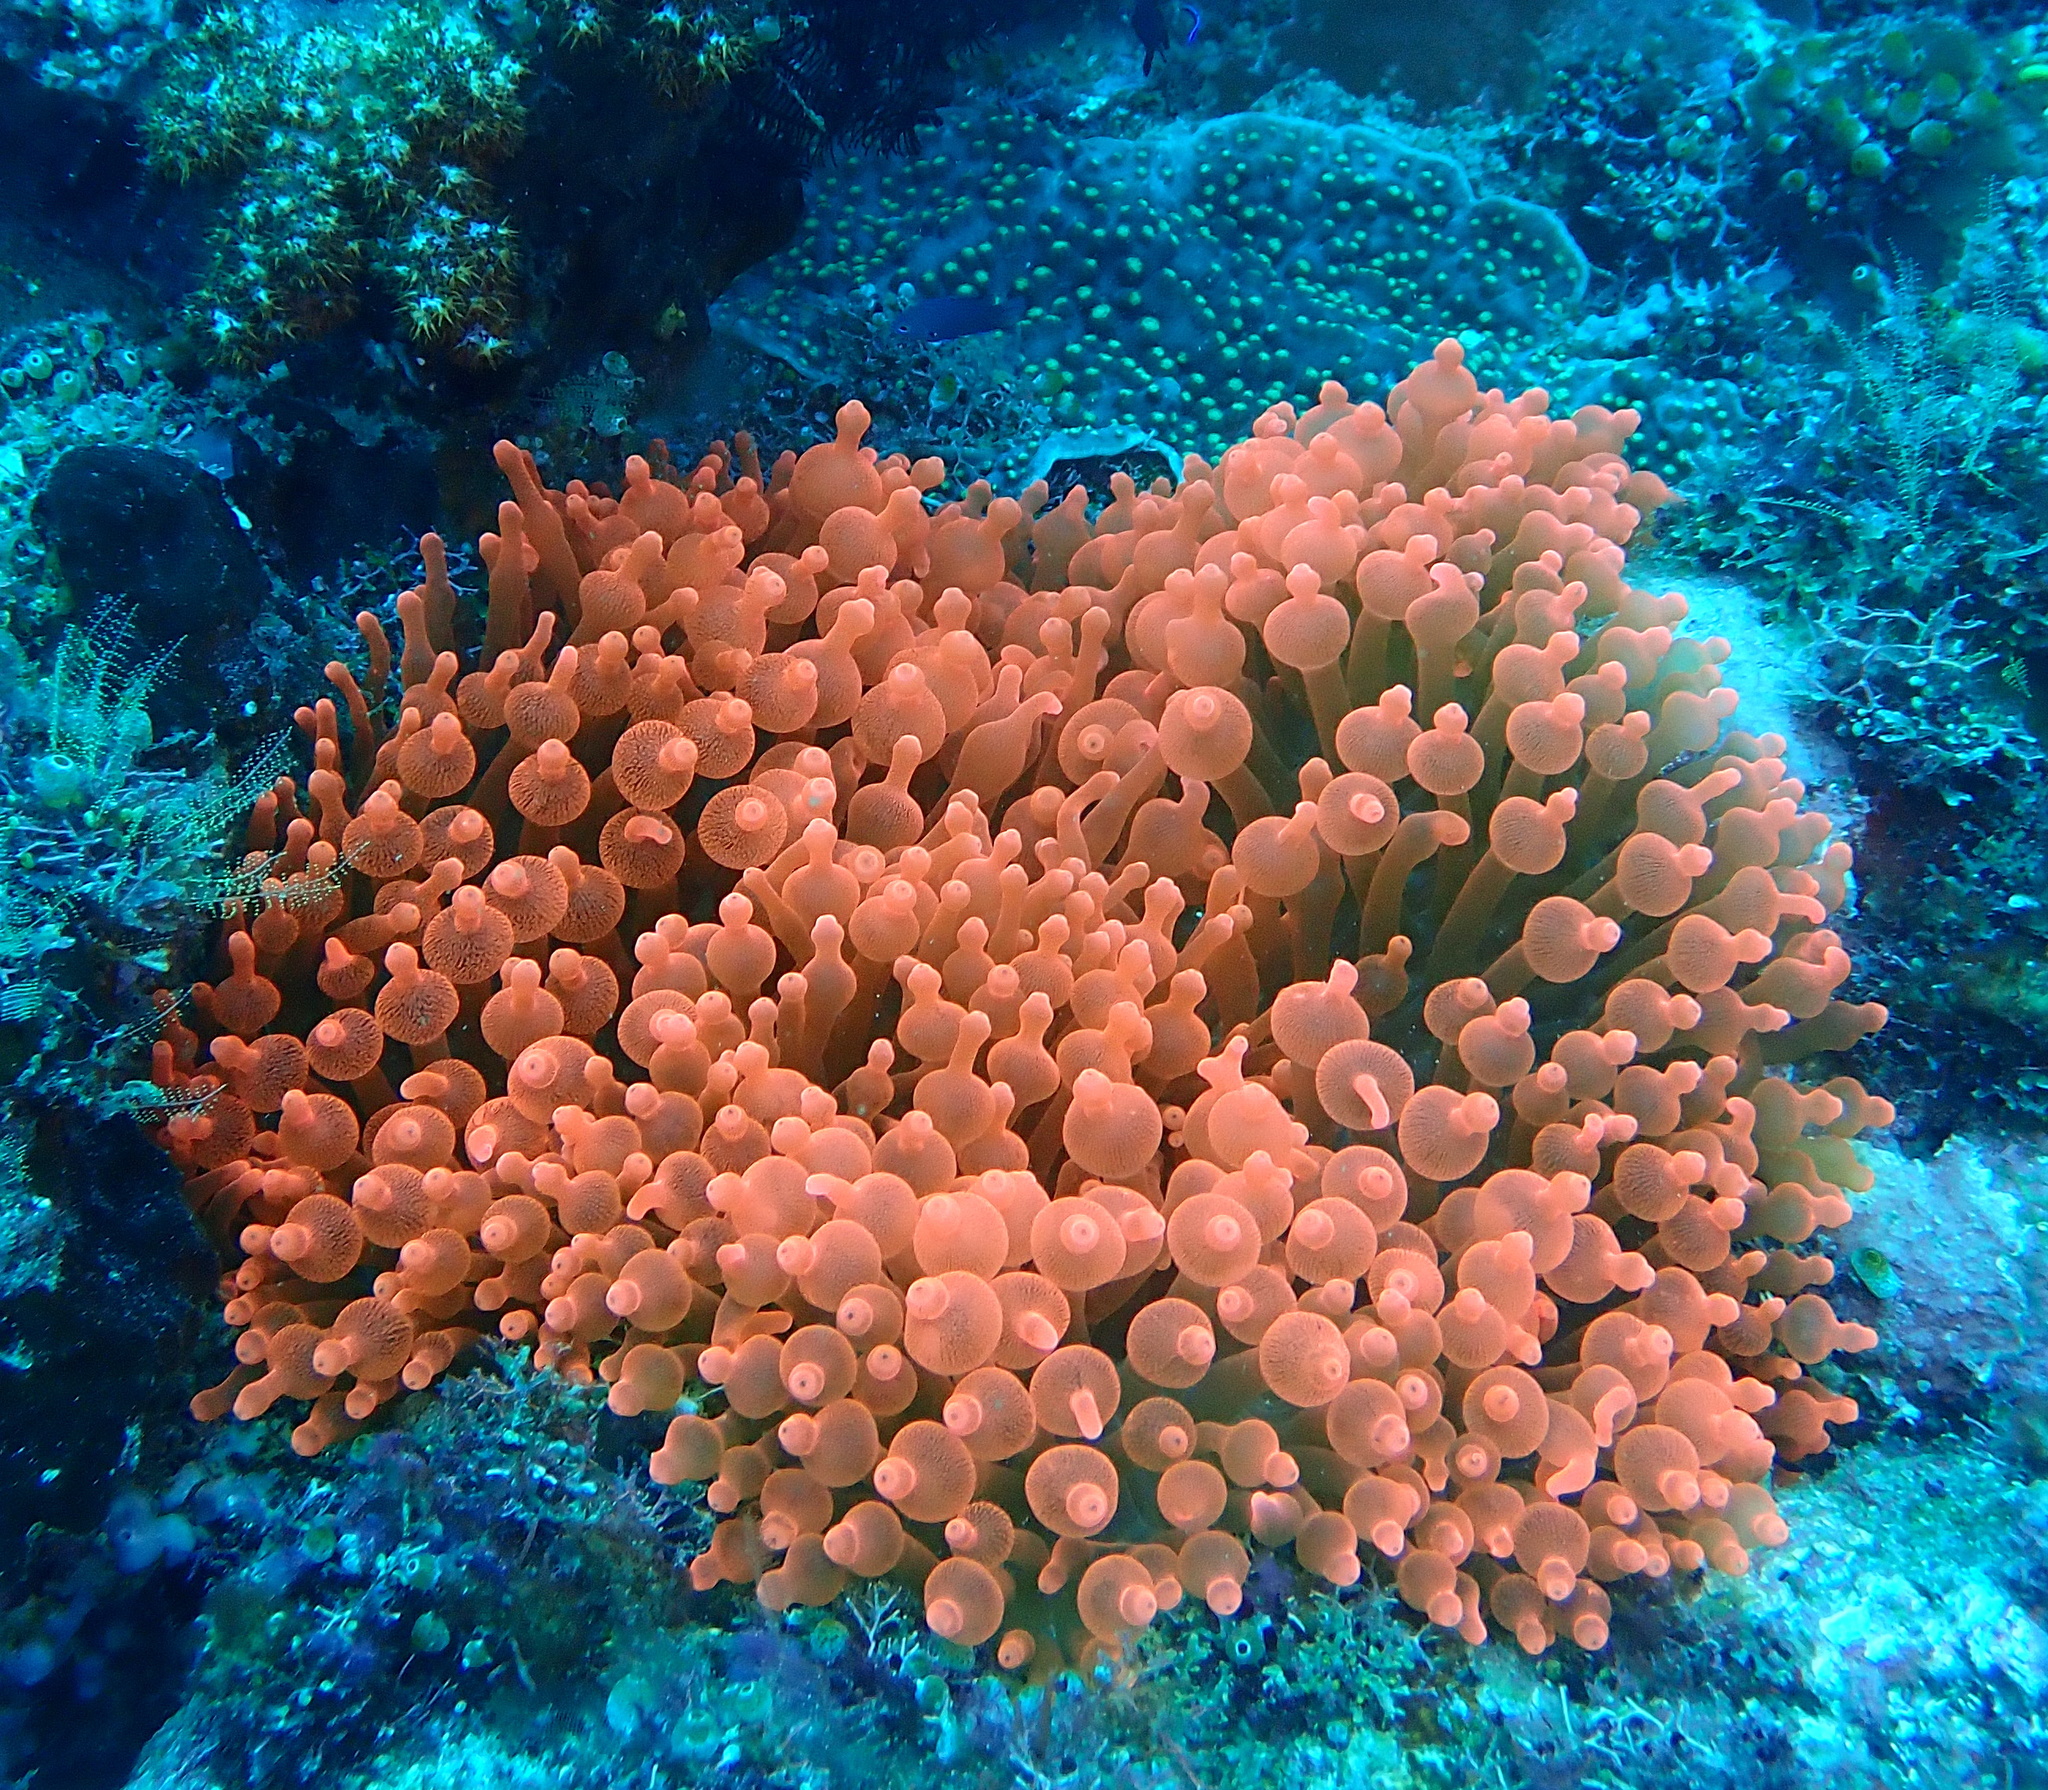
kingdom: Animalia
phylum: Cnidaria
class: Anthozoa
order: Actiniaria
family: Actiniidae
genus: Entacmaea
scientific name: Entacmaea quadricolor
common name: Bulb tentacle sea anemone
